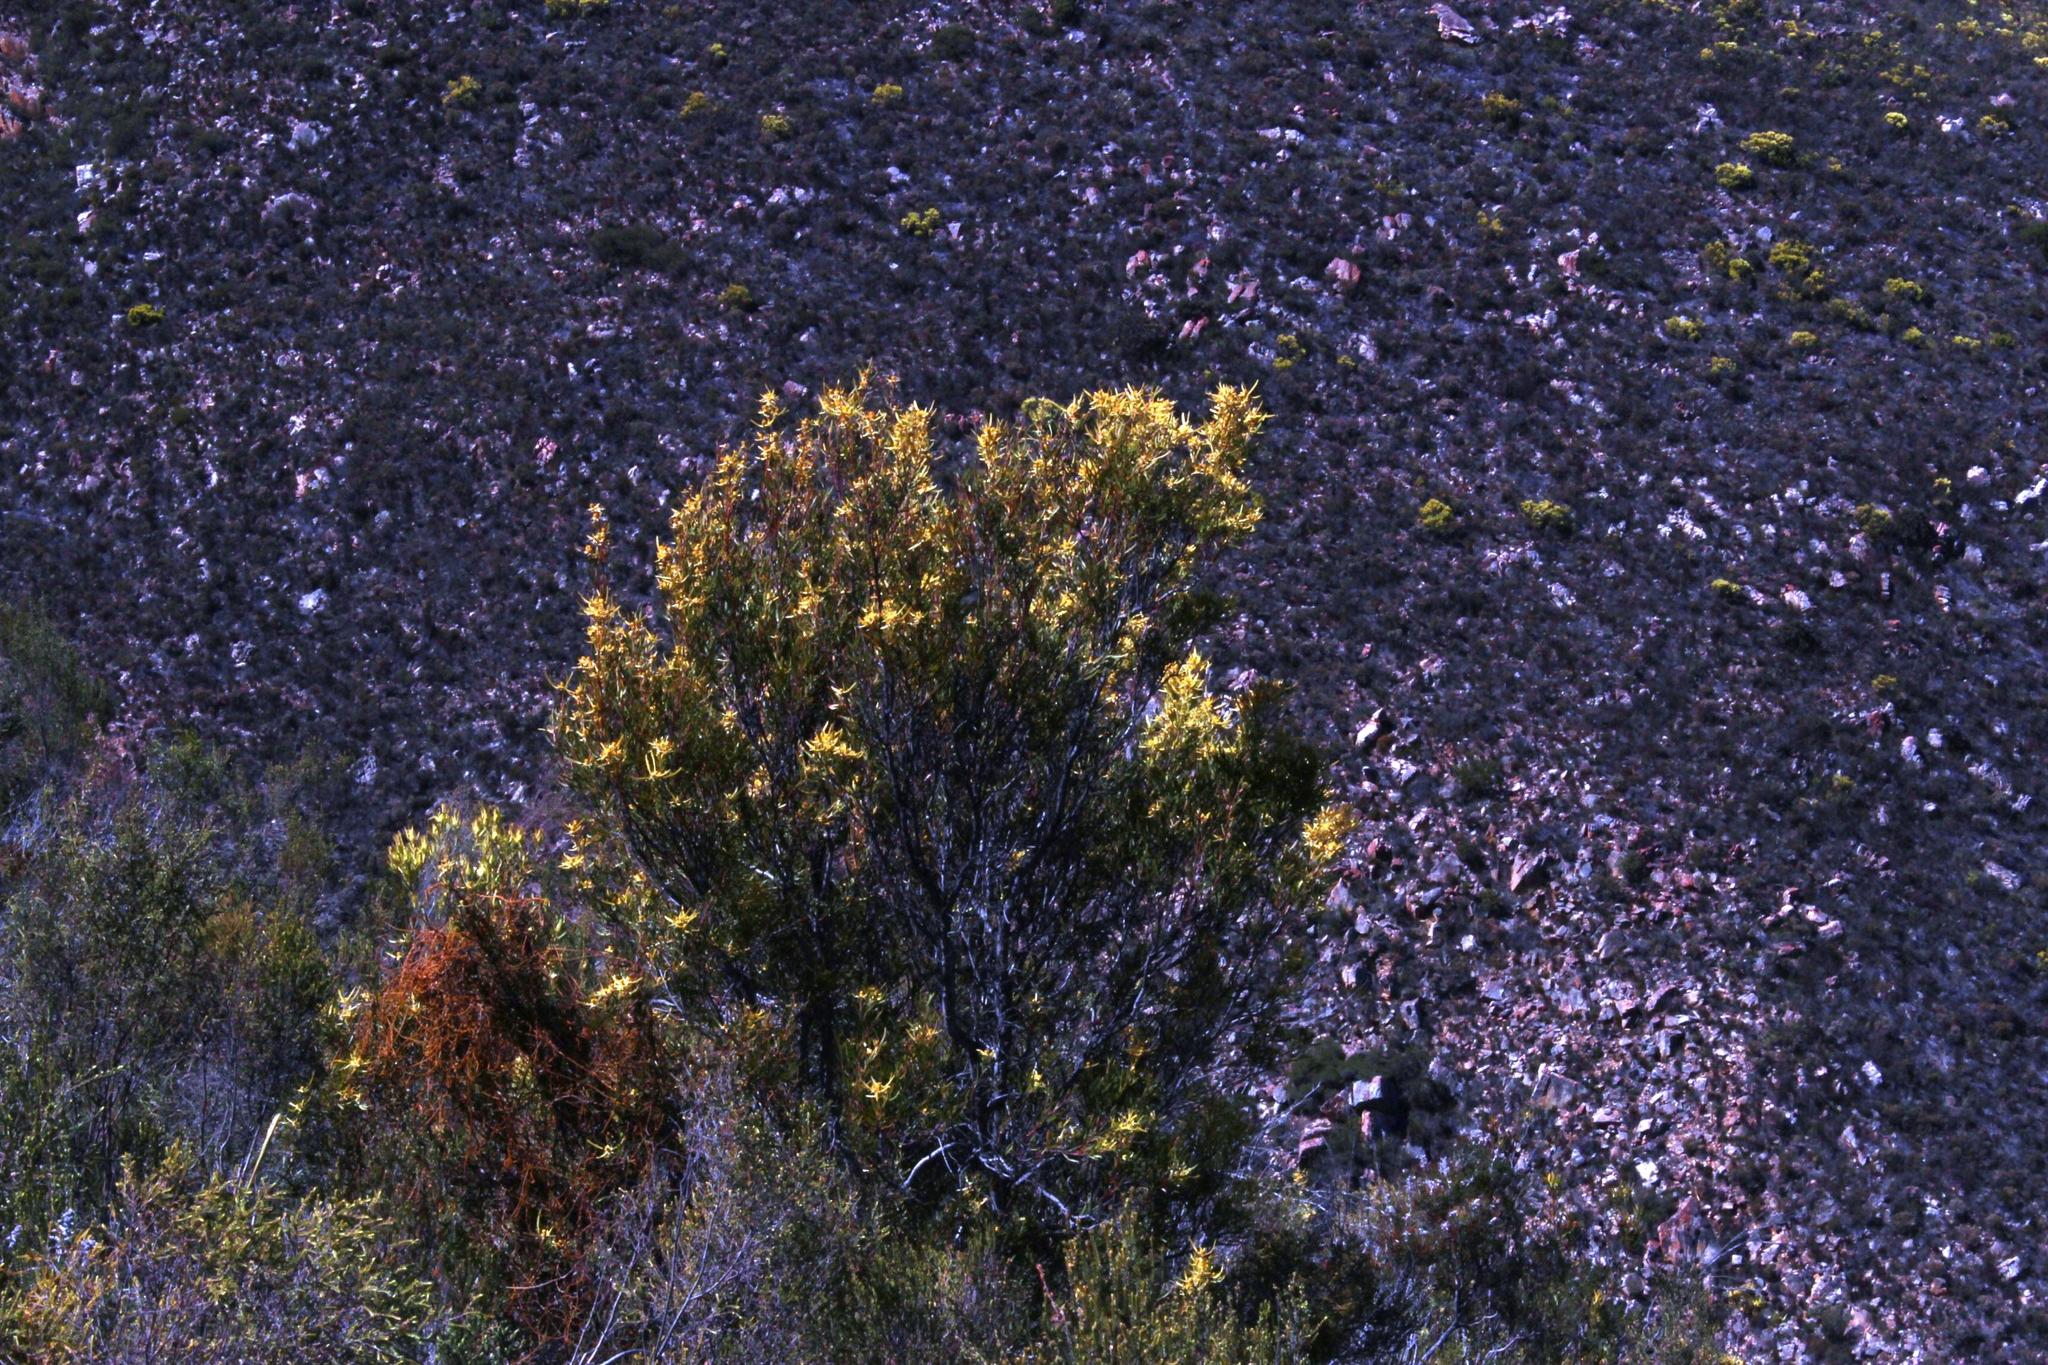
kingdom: Plantae
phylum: Tracheophyta
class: Magnoliopsida
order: Proteales
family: Proteaceae
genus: Leucadendron
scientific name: Leucadendron eucalyptifolium
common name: Gum-leaved conebush
